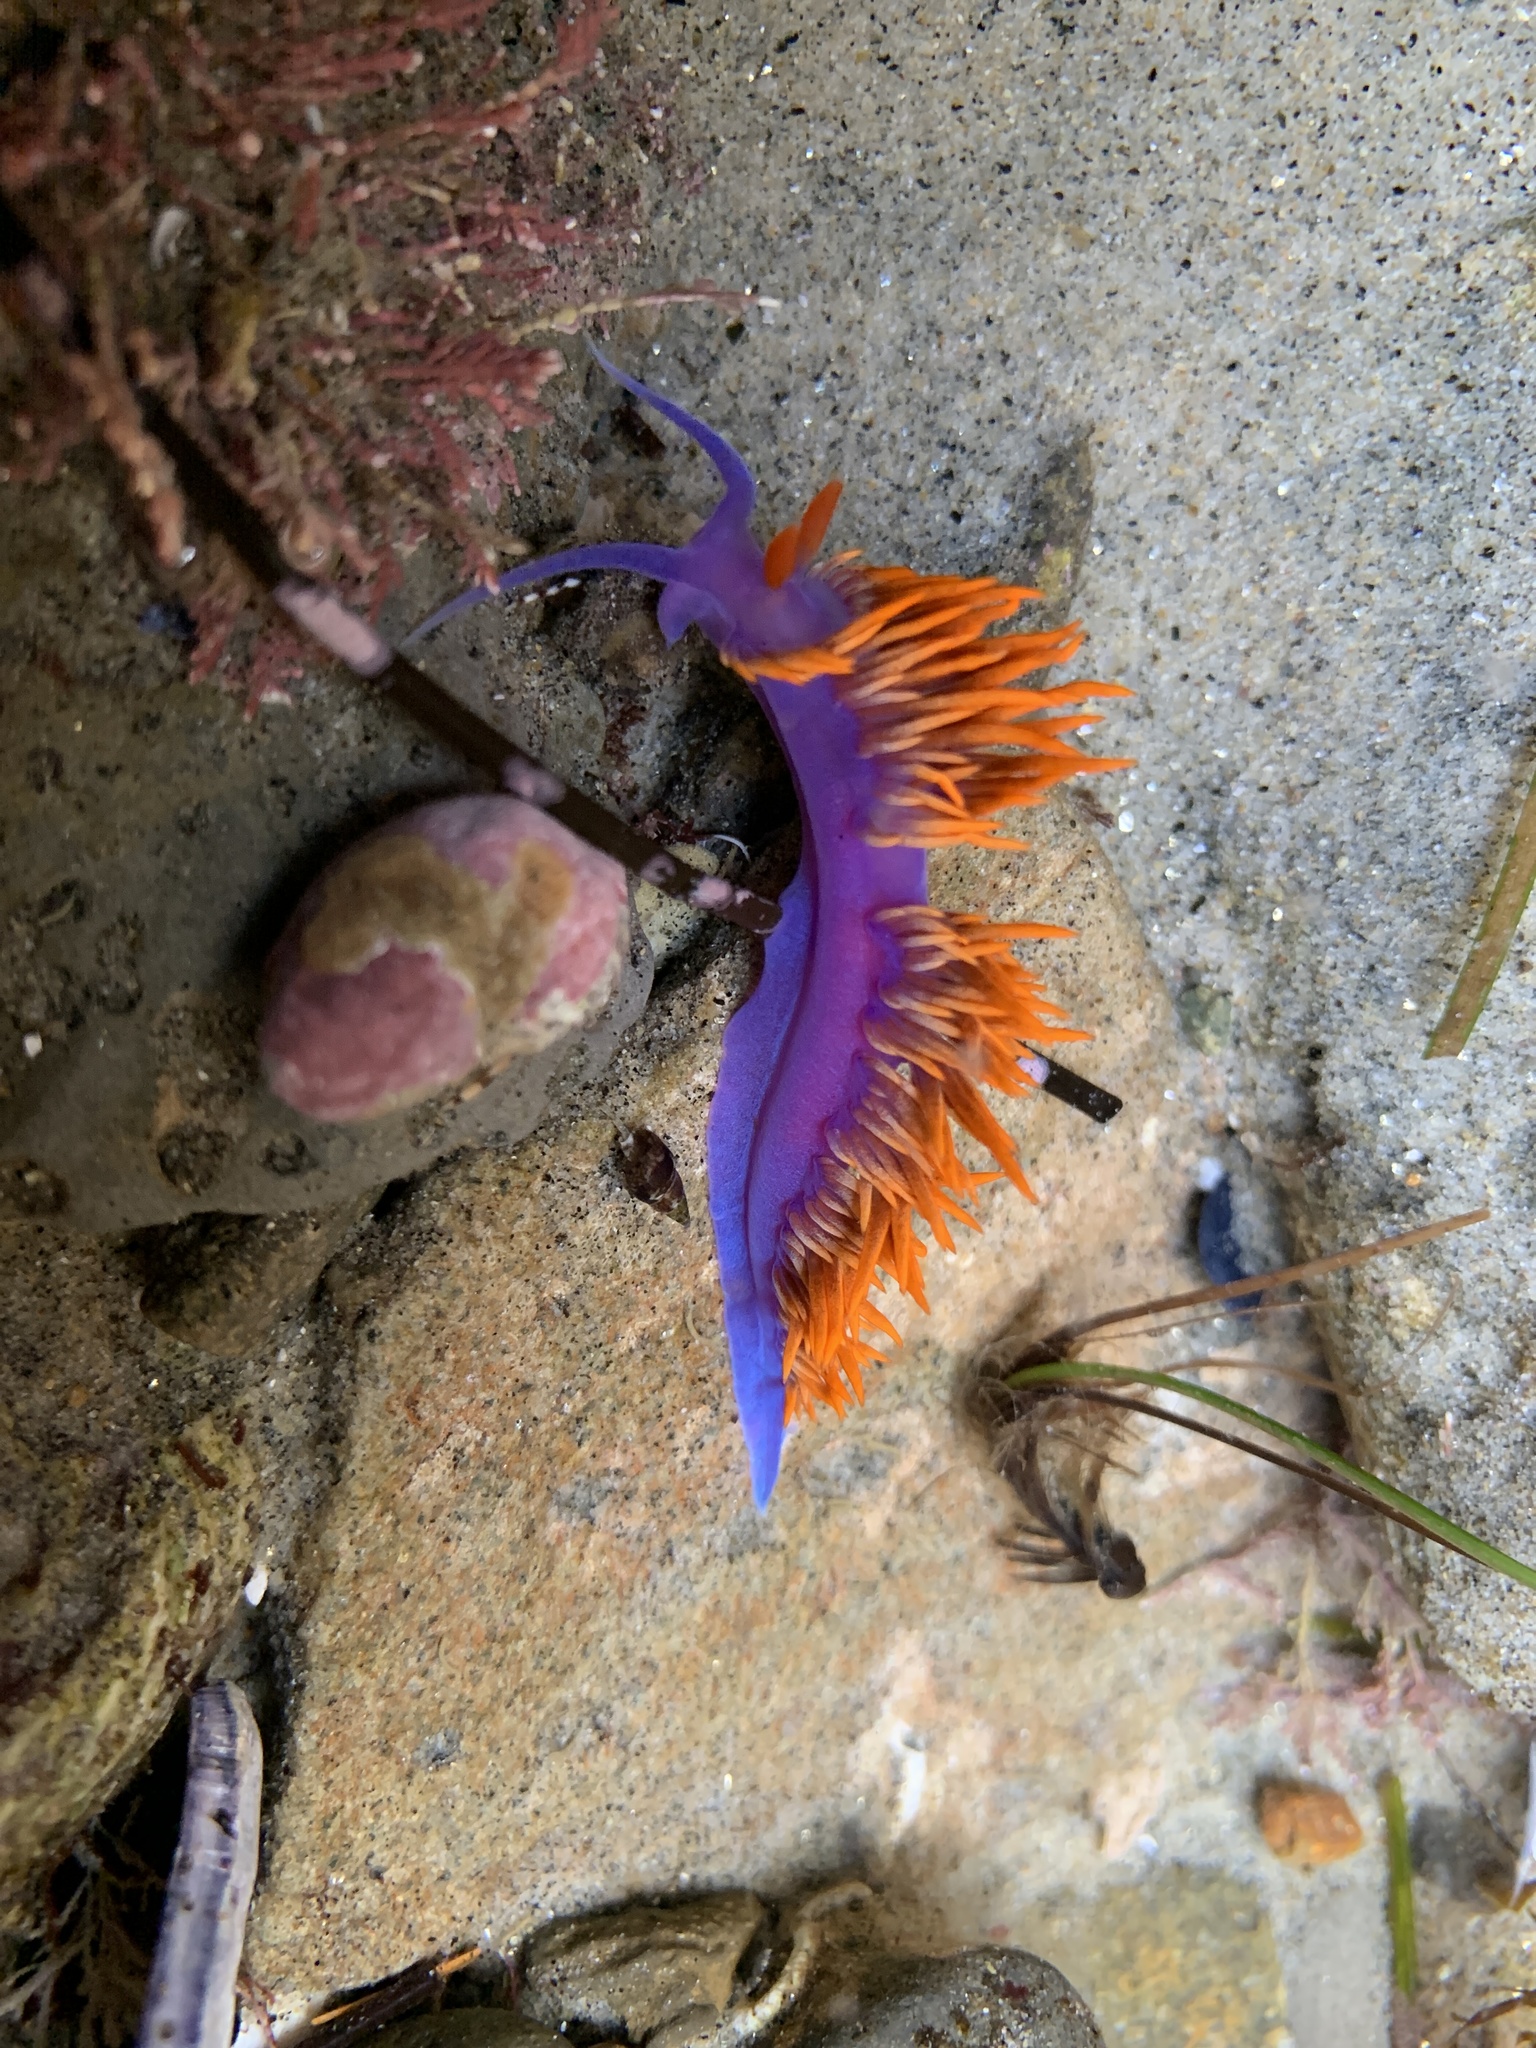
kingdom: Animalia
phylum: Mollusca
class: Gastropoda
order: Nudibranchia
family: Flabellinopsidae
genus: Flabellinopsis
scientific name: Flabellinopsis iodinea
